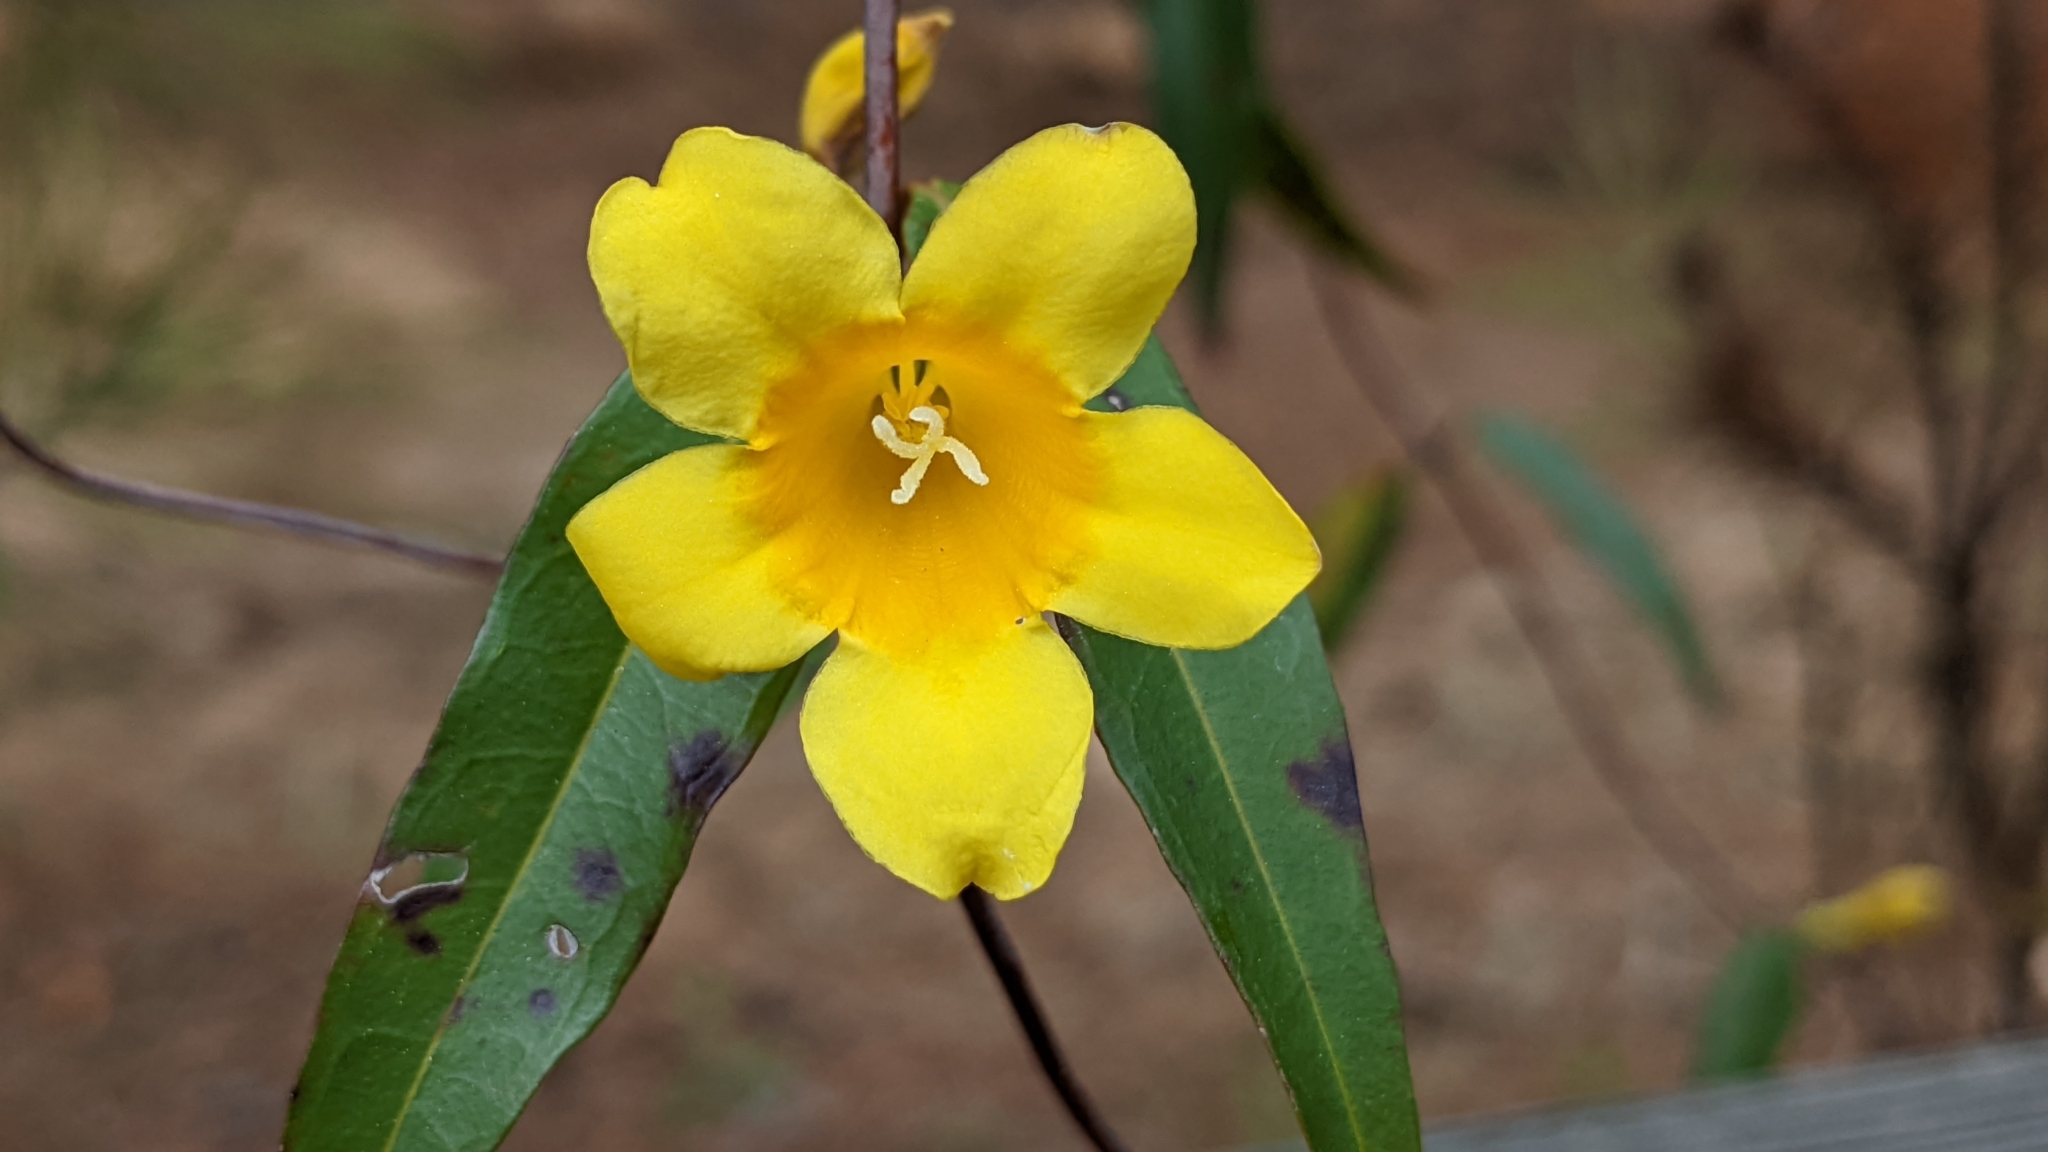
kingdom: Plantae
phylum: Tracheophyta
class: Magnoliopsida
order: Gentianales
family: Gelsemiaceae
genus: Gelsemium
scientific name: Gelsemium sempervirens
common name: Carolina-jasmine
